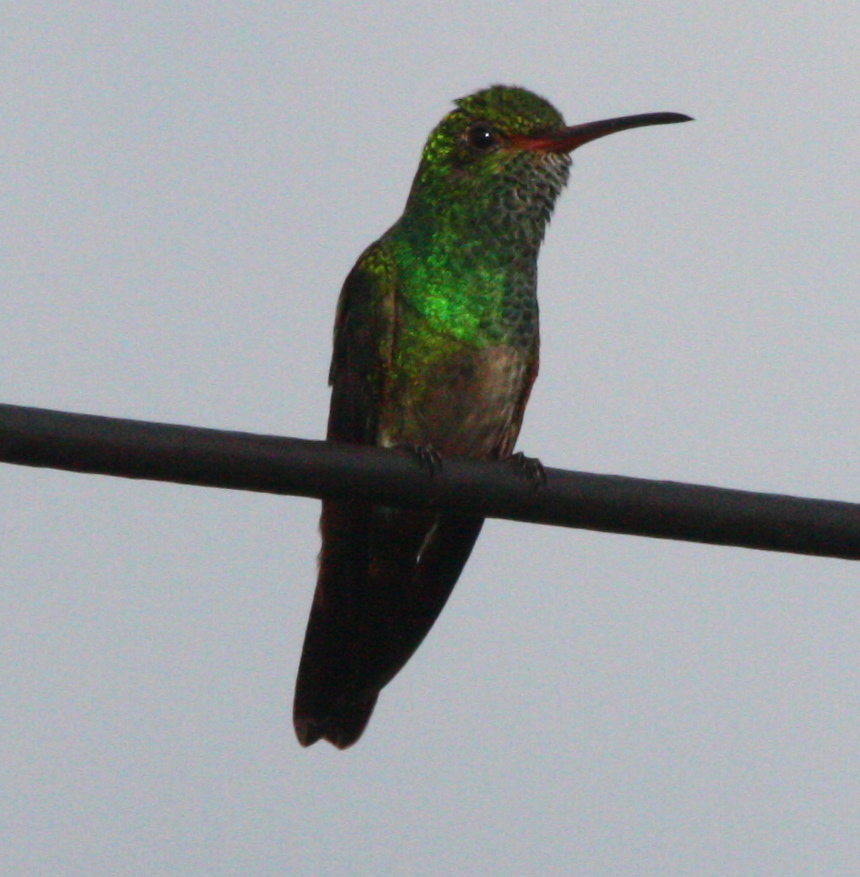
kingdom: Animalia
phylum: Chordata
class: Aves
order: Apodiformes
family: Trochilidae
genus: Amazilia
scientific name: Amazilia tzacatl
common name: Rufous-tailed hummingbird
